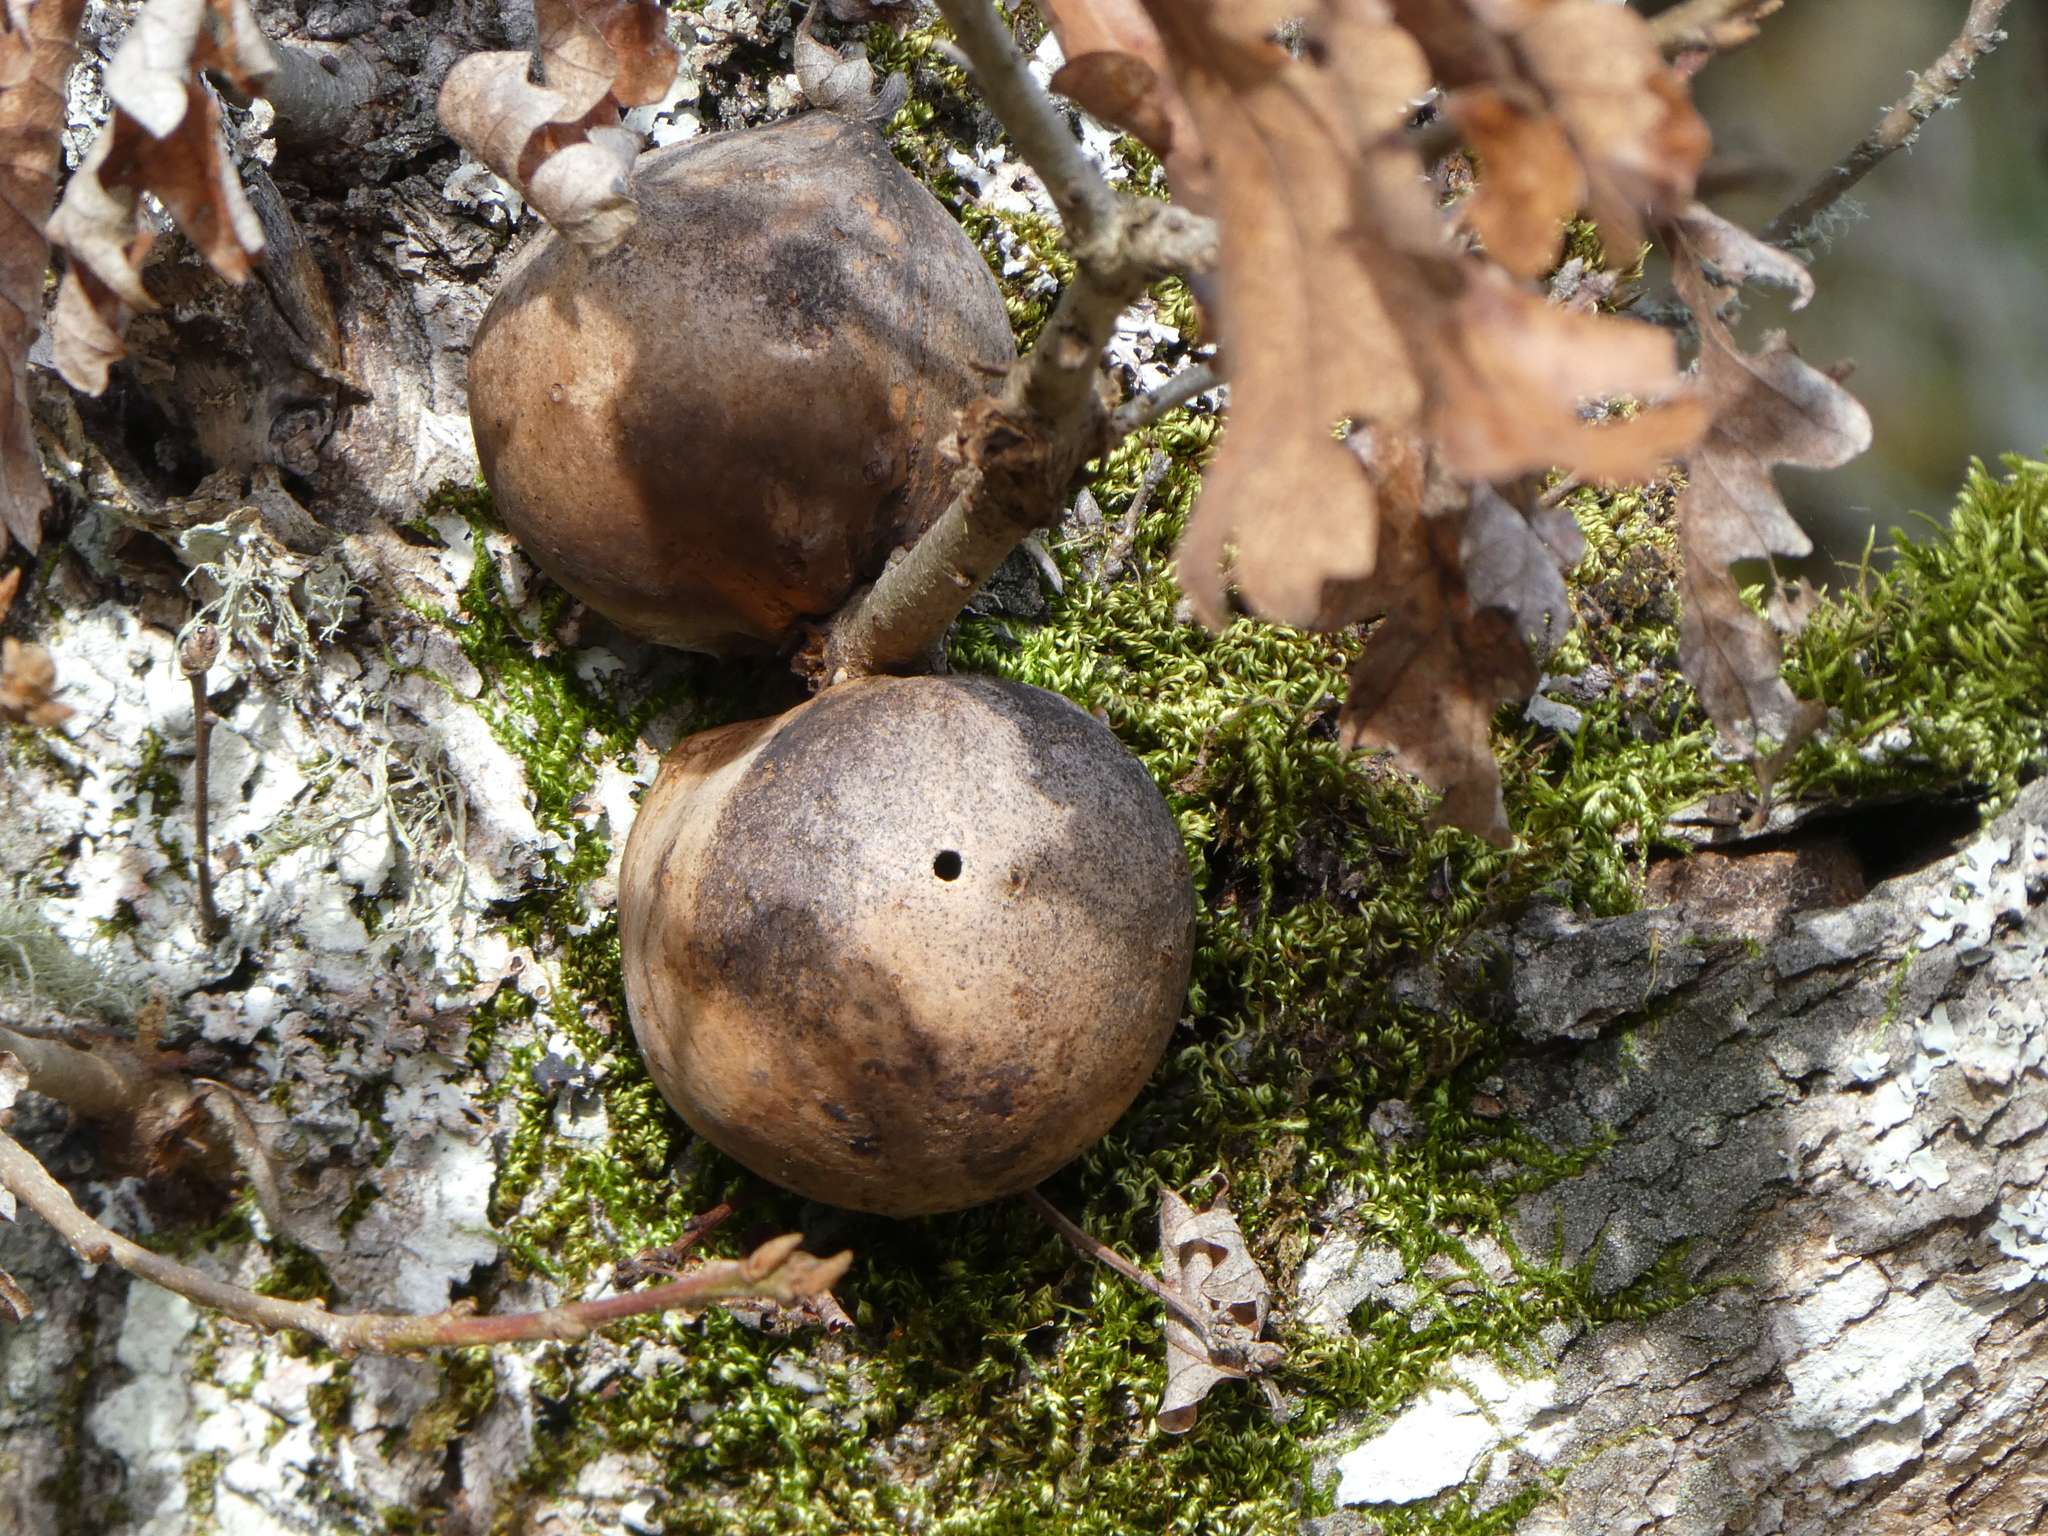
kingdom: Animalia
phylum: Arthropoda
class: Insecta
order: Hymenoptera
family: Cynipidae
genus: Andricus
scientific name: Andricus quercuscalifornicus
